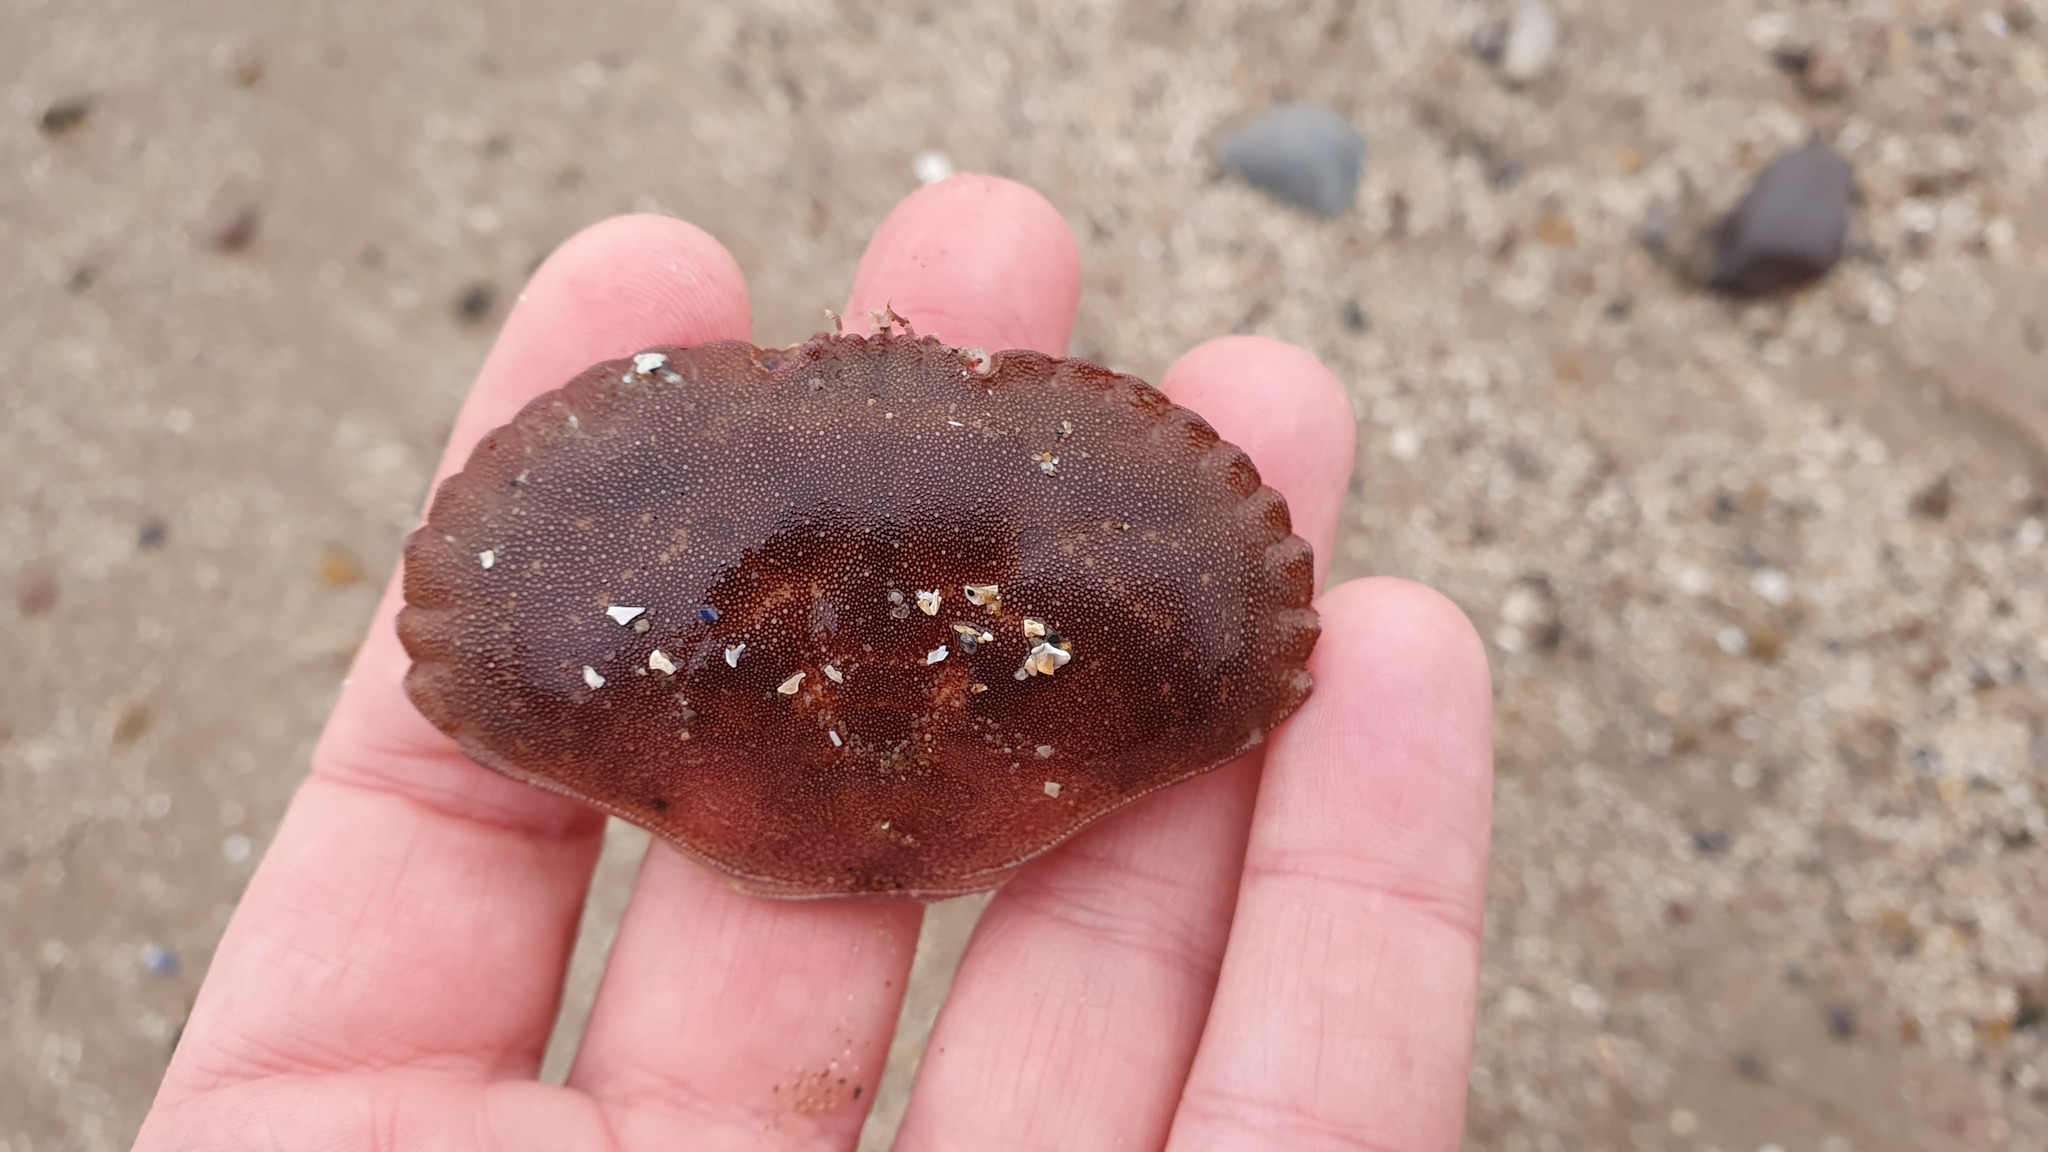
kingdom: Animalia
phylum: Arthropoda
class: Malacostraca
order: Decapoda
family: Cancridae
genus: Cancer
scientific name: Cancer pagurus
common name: Edible crab
